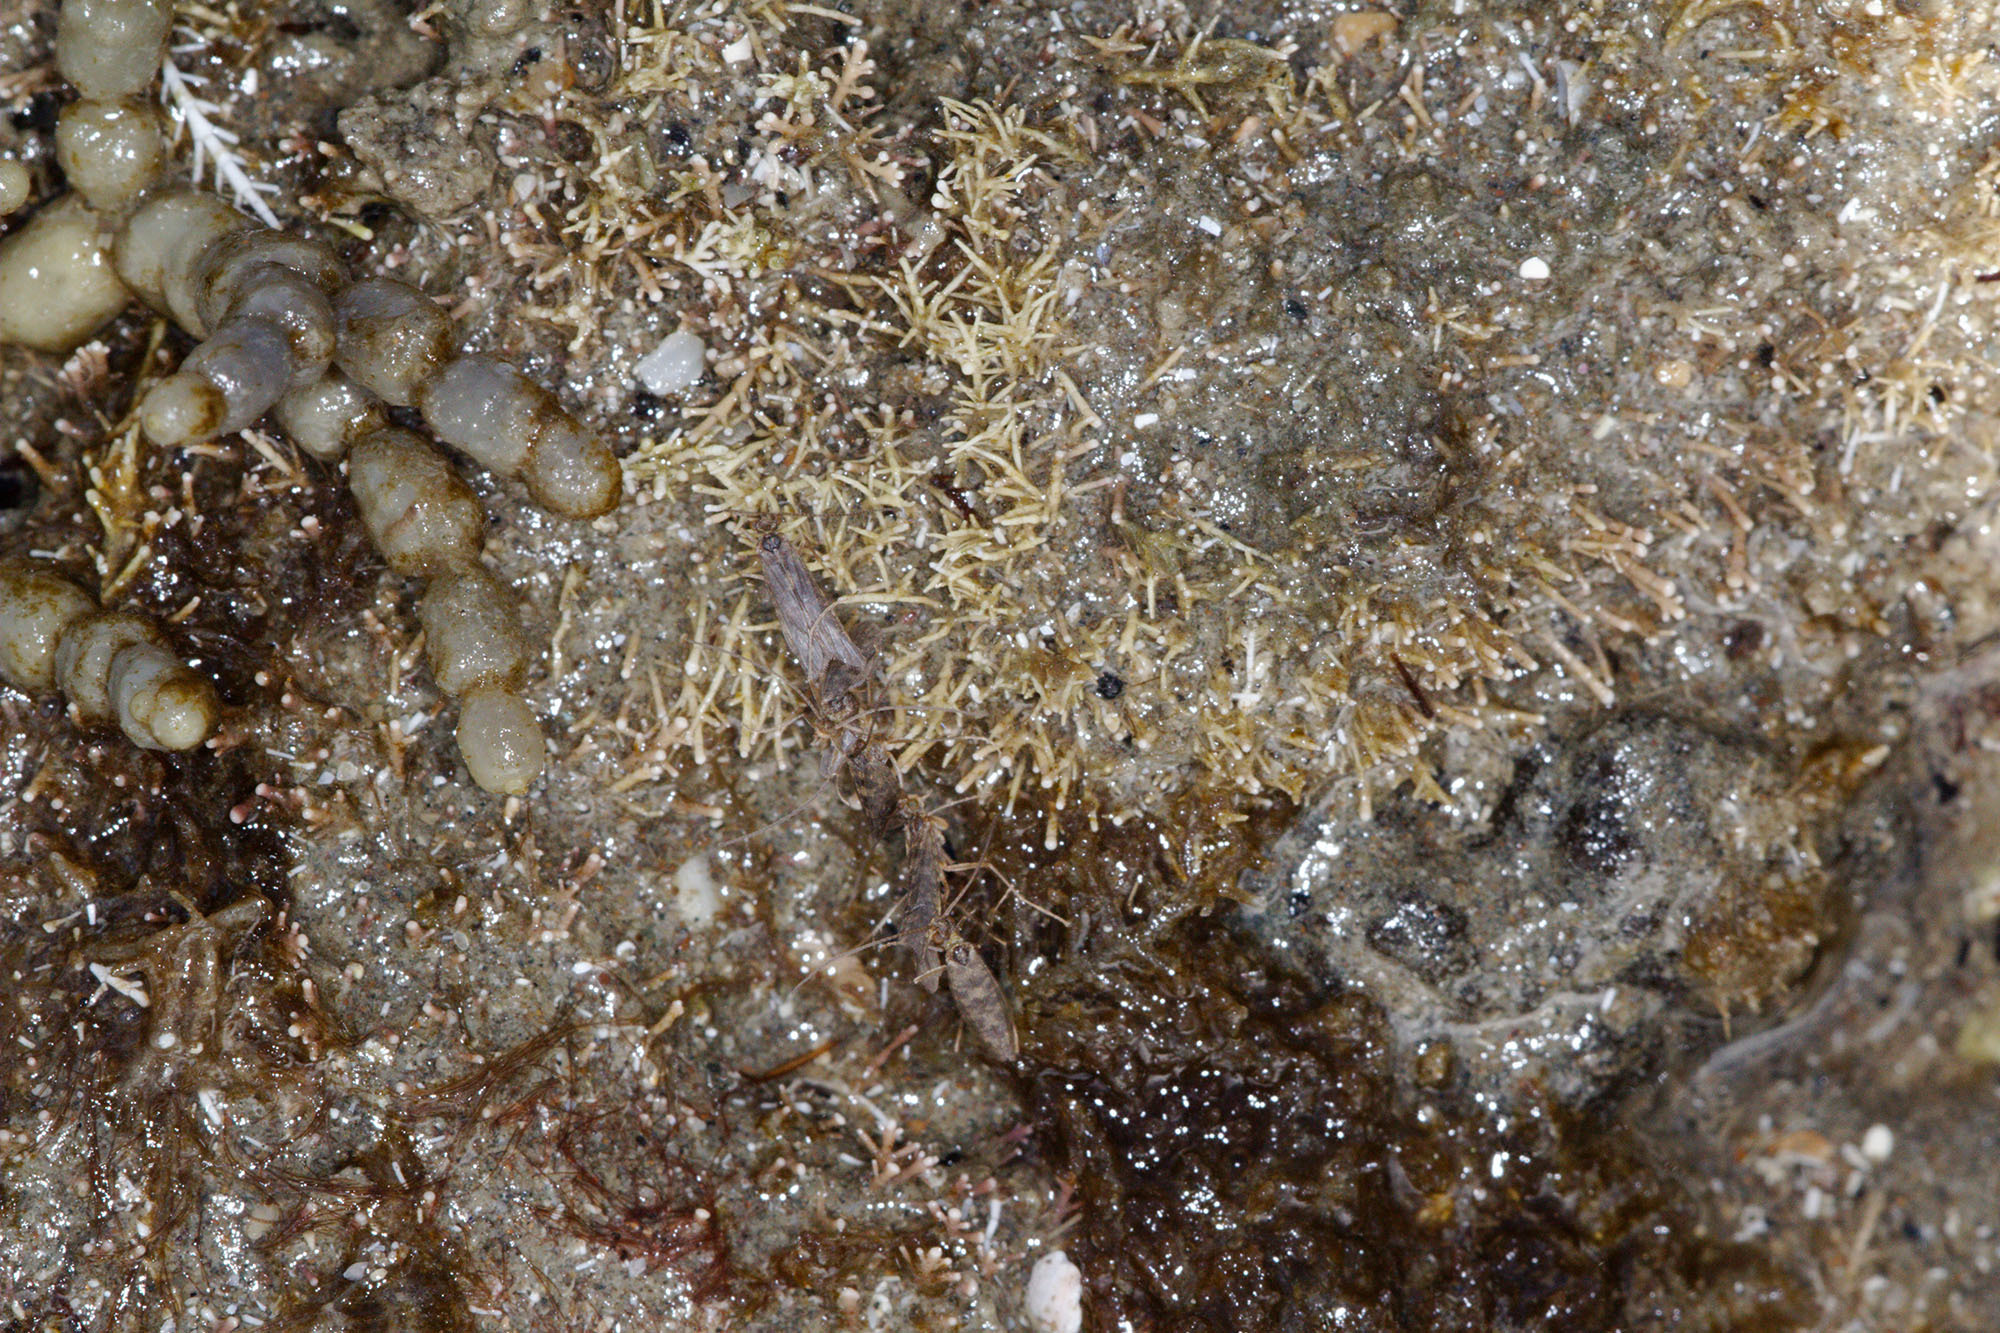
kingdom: Animalia
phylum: Arthropoda
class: Insecta
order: Trichoptera
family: Chathamiidae
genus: Philanisus
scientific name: Philanisus plebeius
